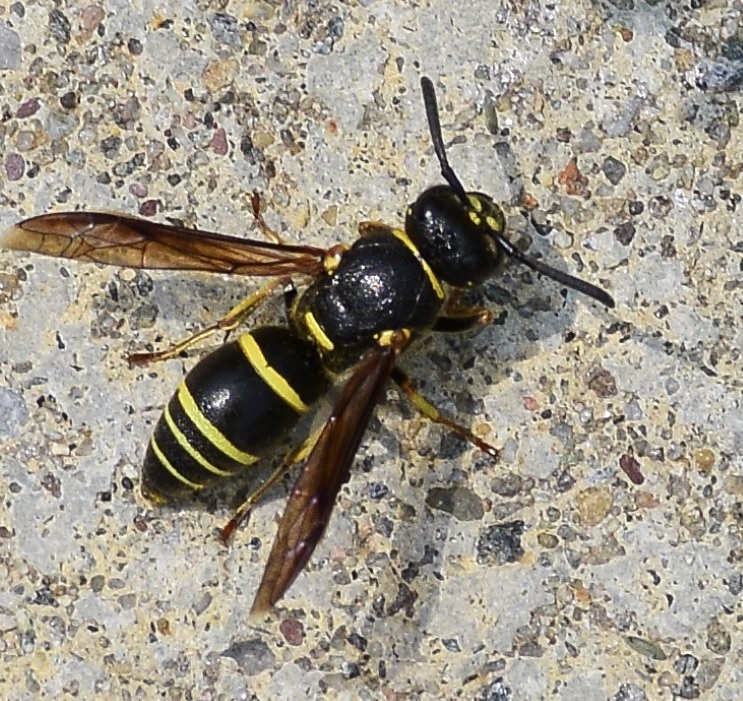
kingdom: Animalia
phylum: Arthropoda
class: Insecta
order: Hymenoptera
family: Eumenidae
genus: Euodynerus
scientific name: Euodynerus foraminatus
